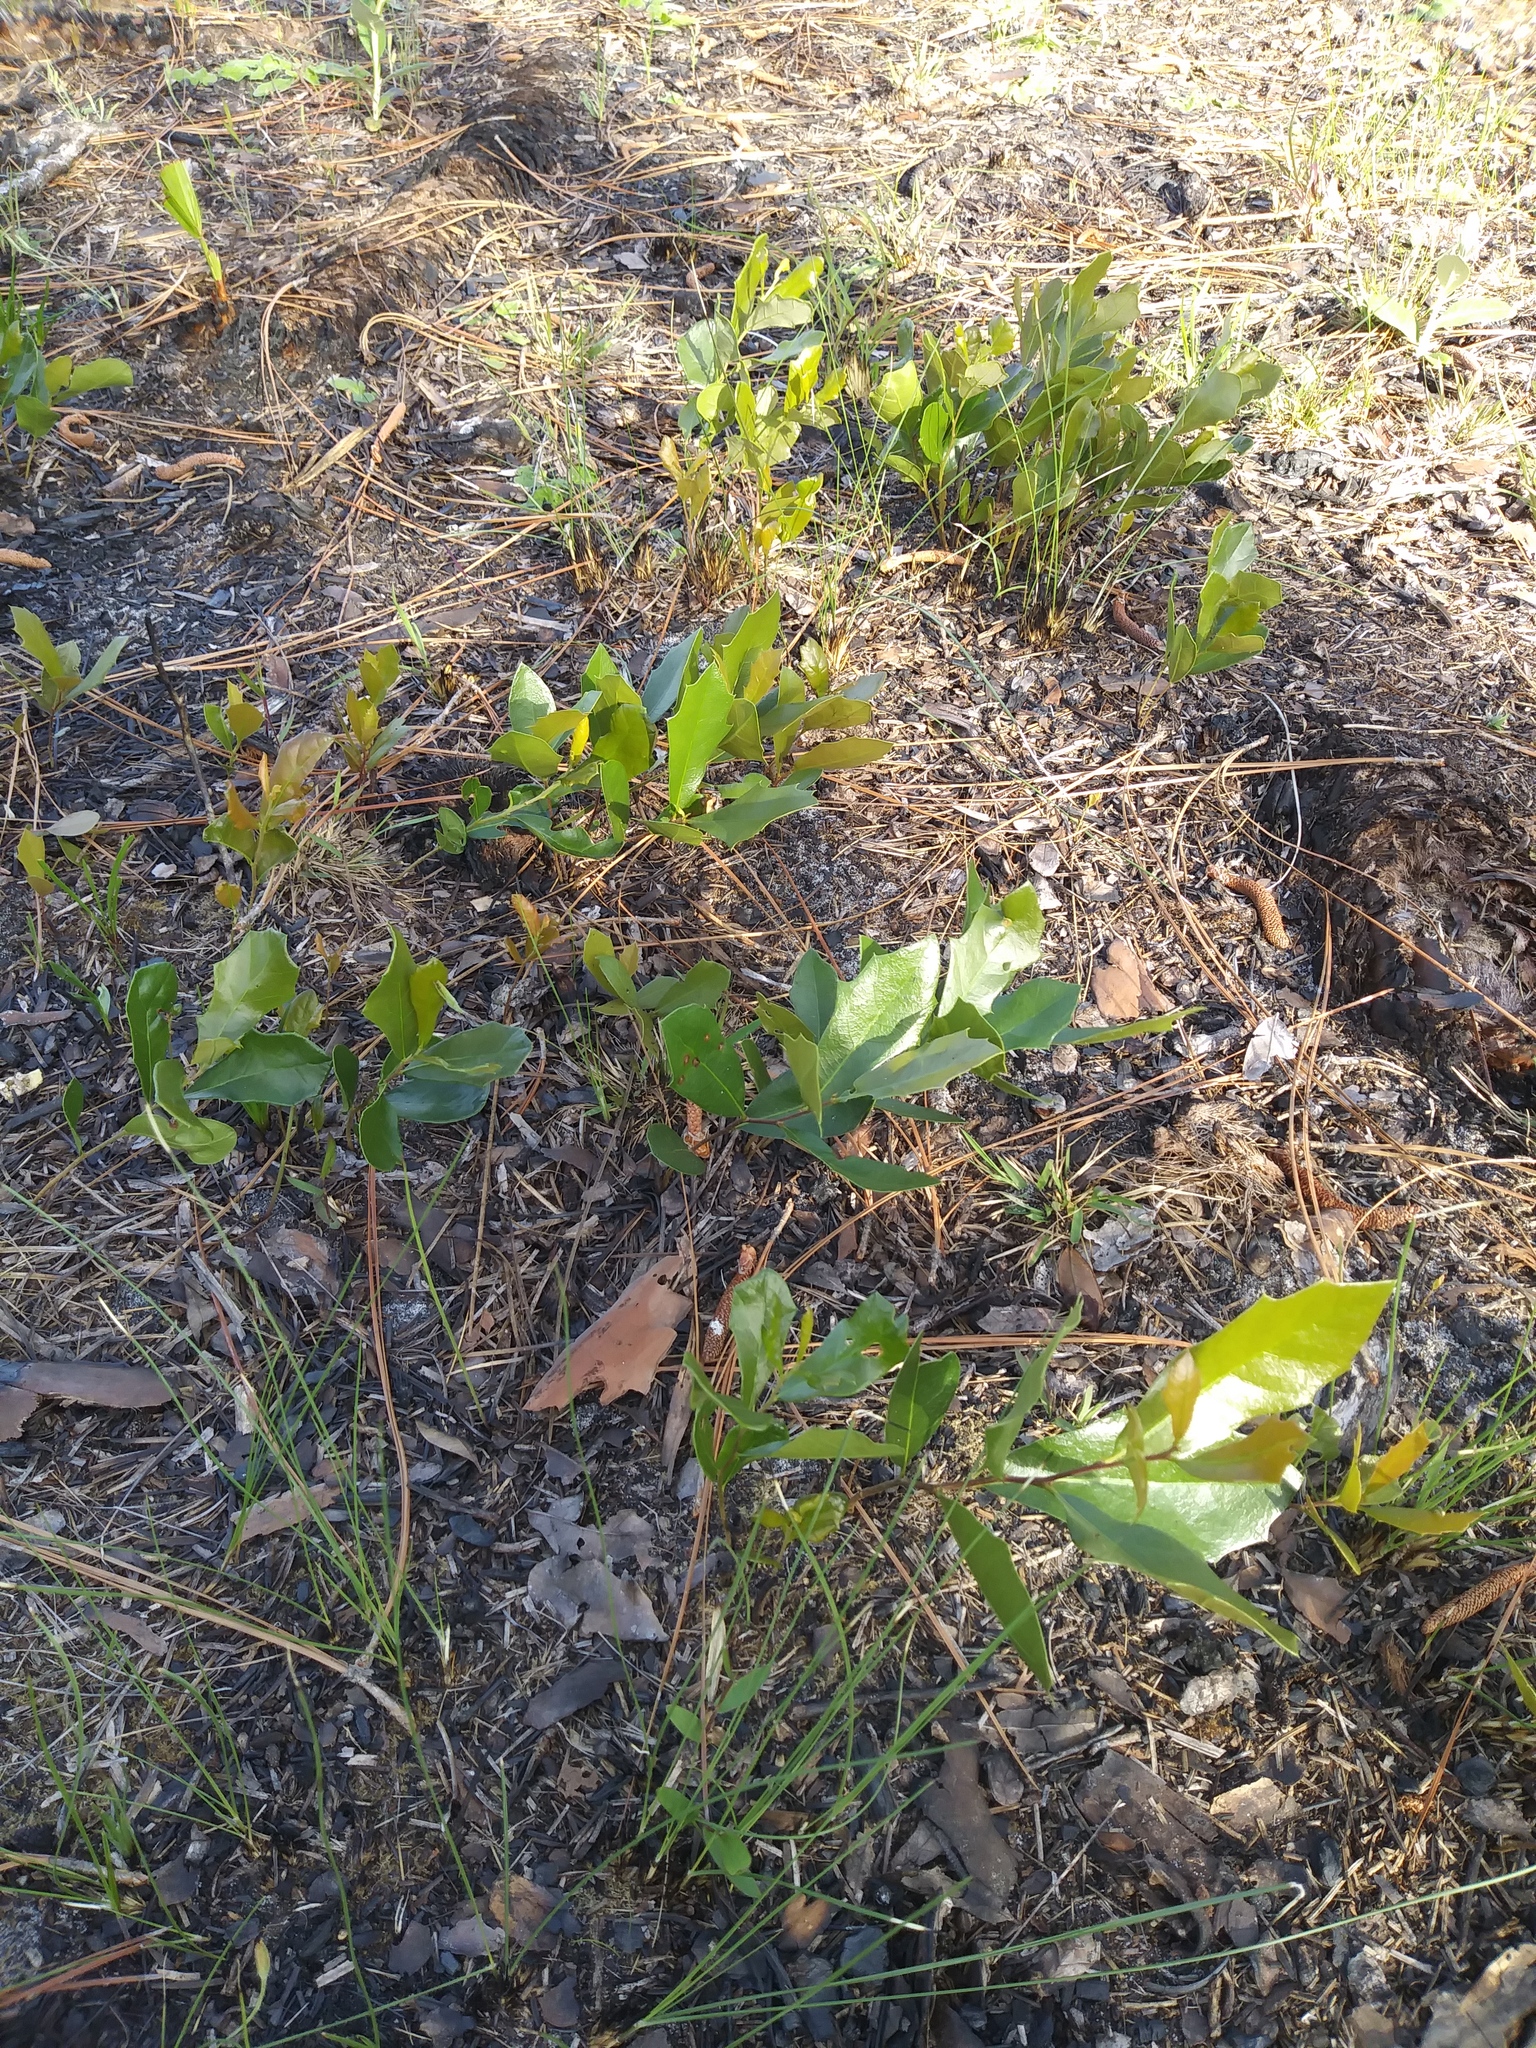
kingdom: Plantae
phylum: Tracheophyta
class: Magnoliopsida
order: Fagales
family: Fagaceae
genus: Quercus
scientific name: Quercus minima
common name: Dwarf live oak
